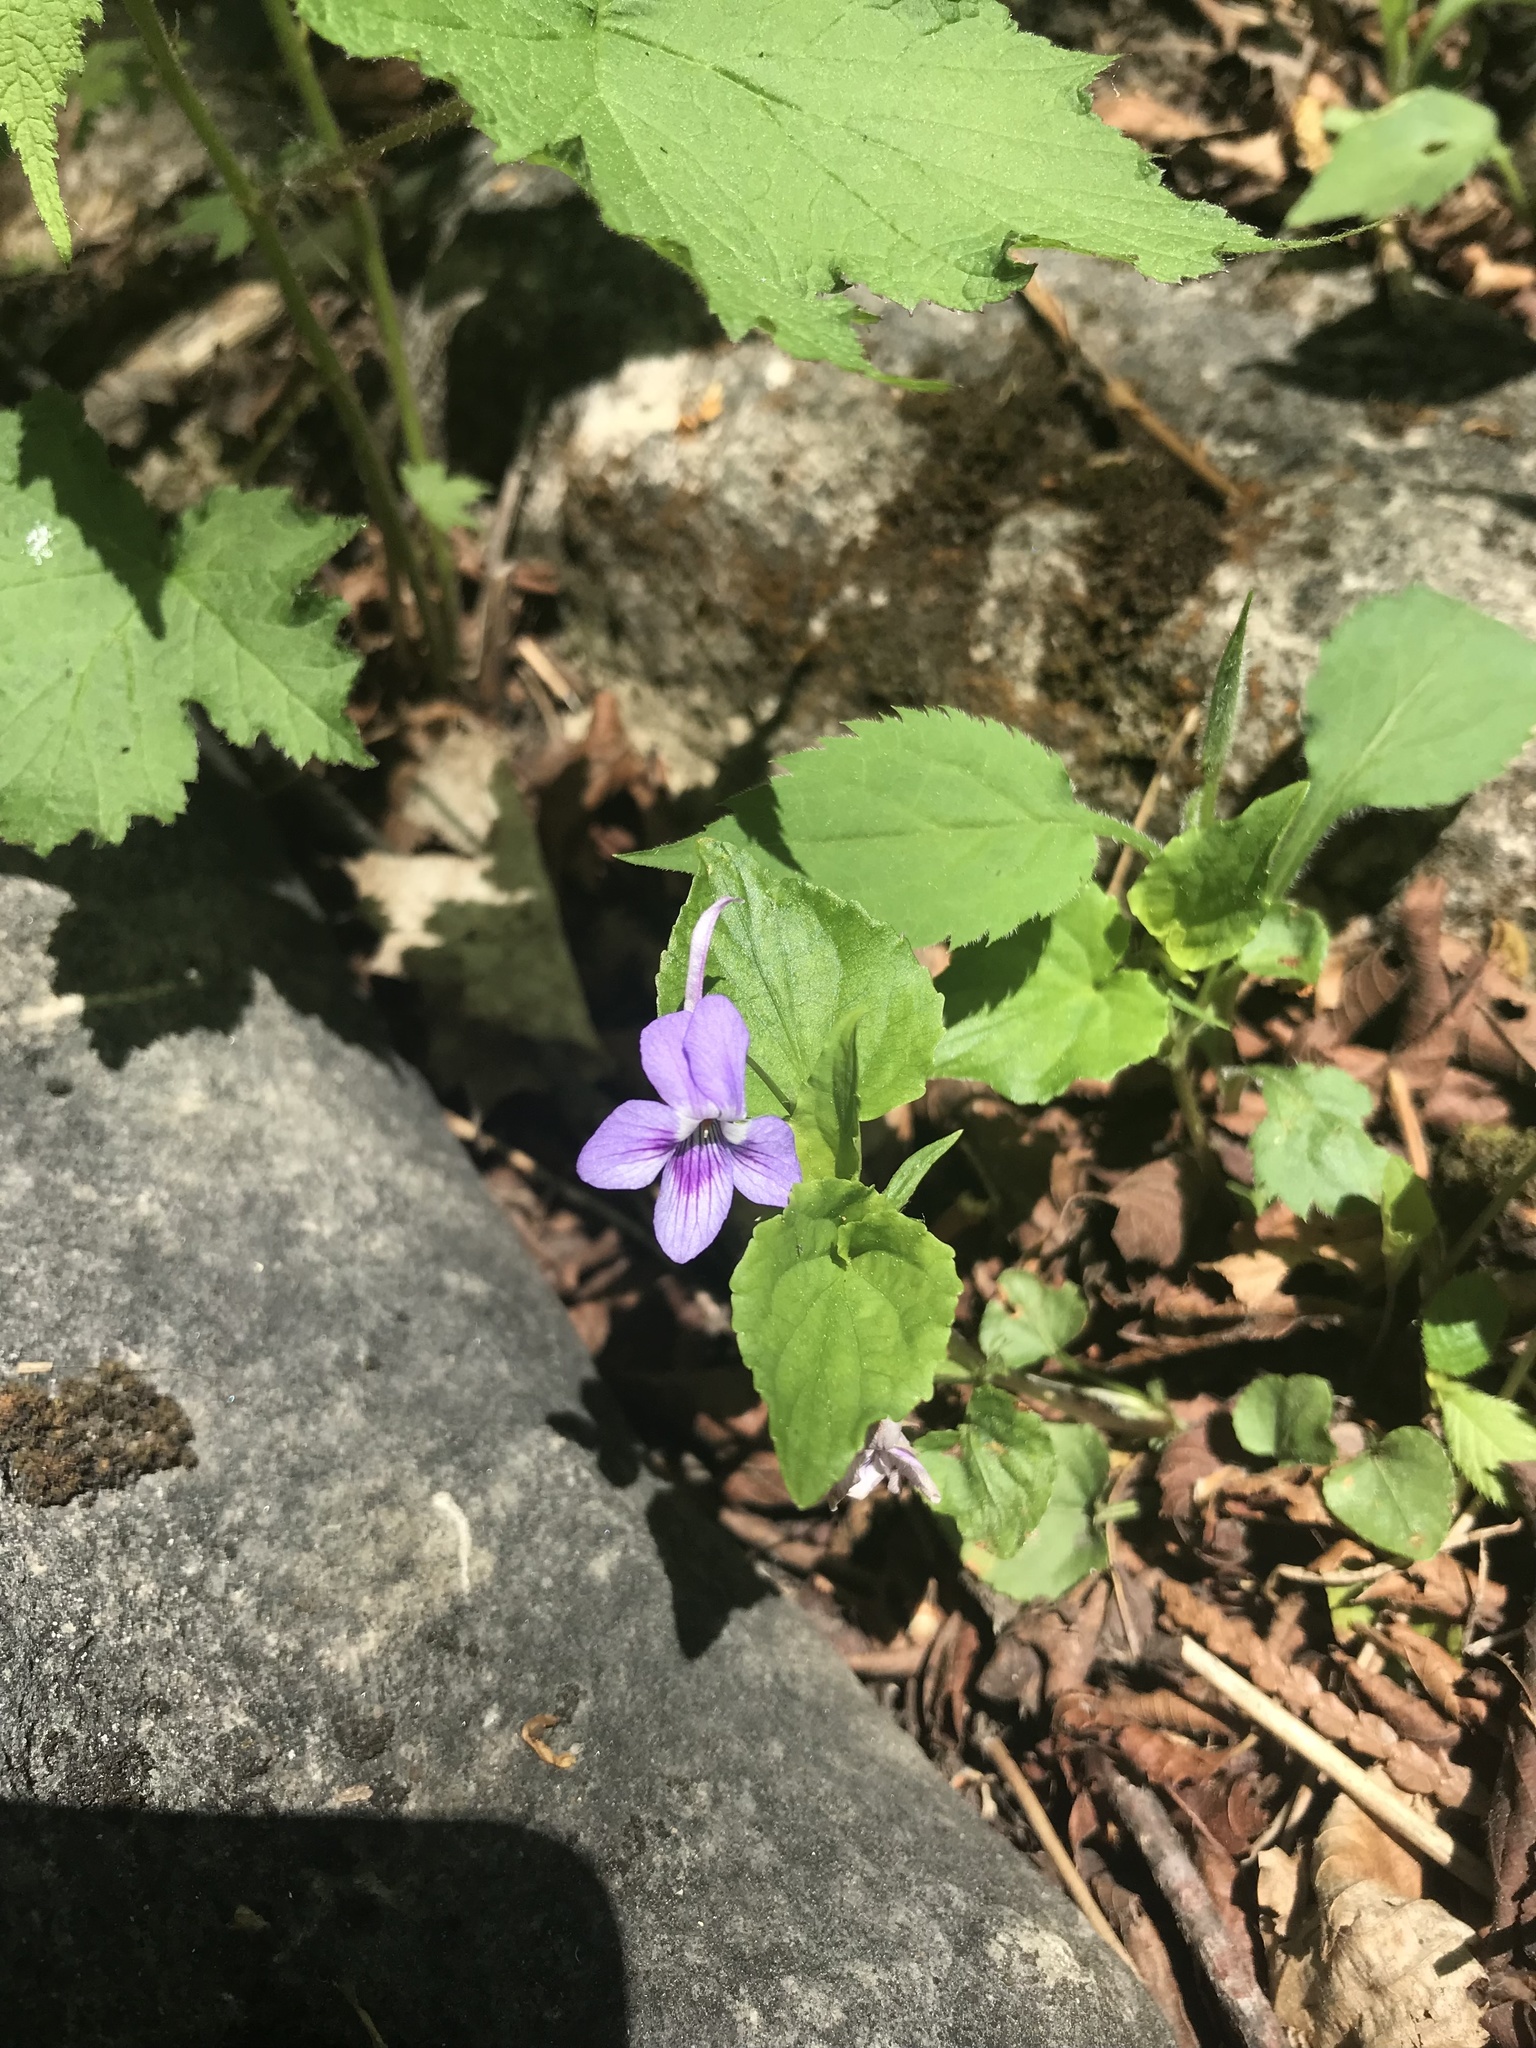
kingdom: Plantae
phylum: Tracheophyta
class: Magnoliopsida
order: Malpighiales
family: Violaceae
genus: Viola
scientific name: Viola rostrata
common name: Long-spur violet
